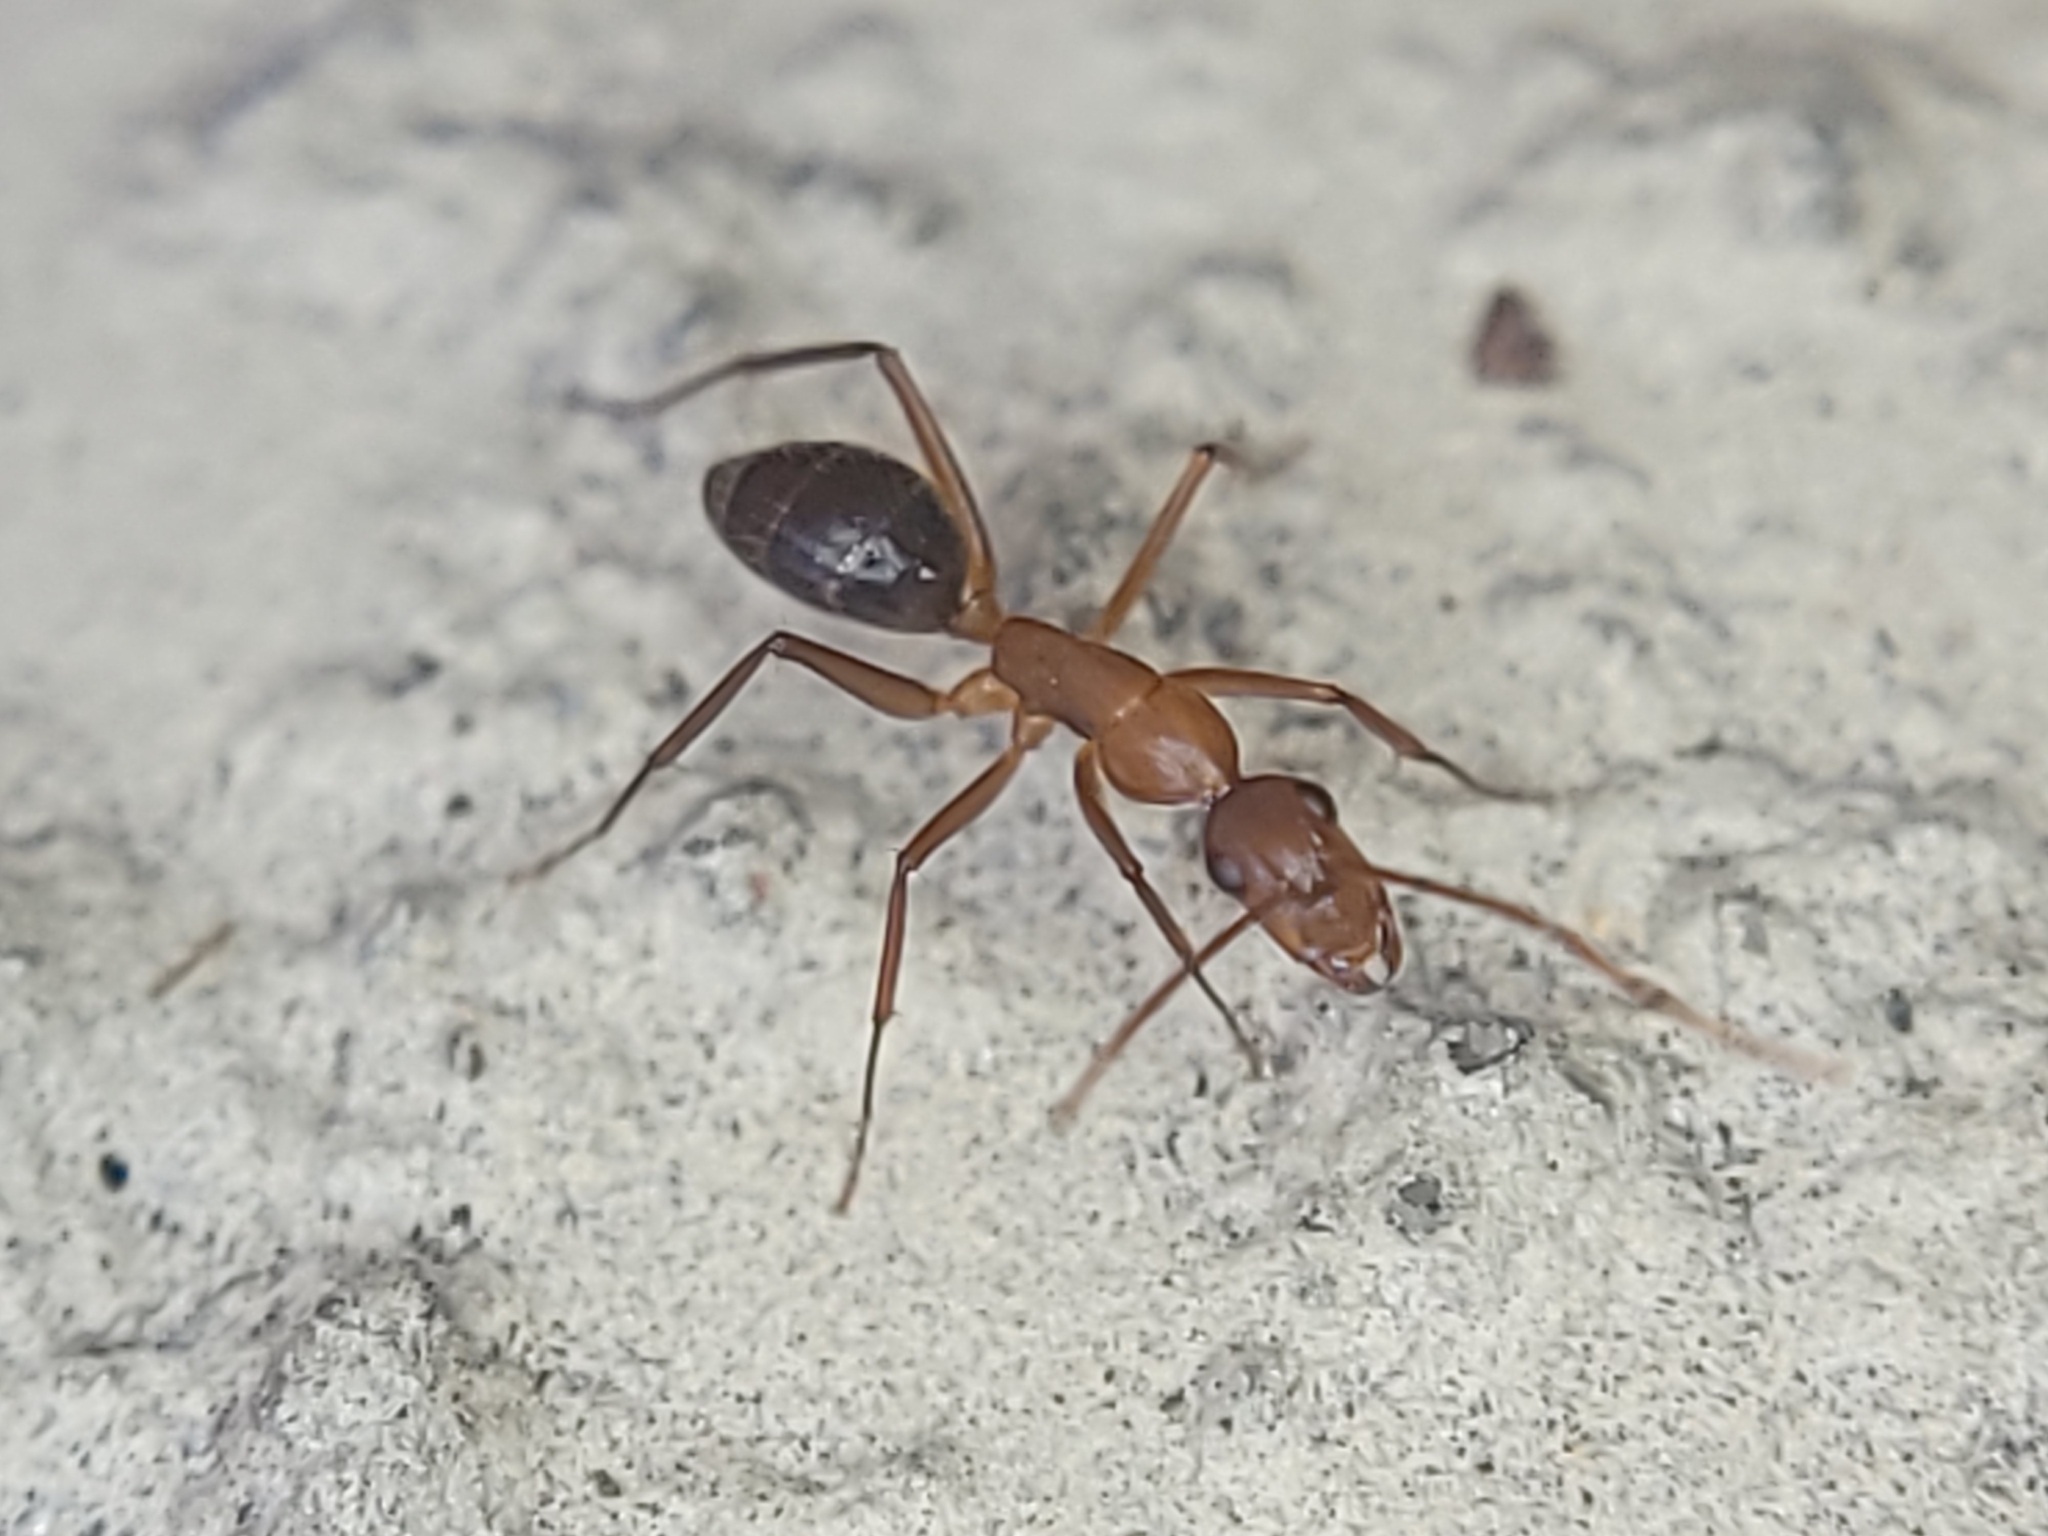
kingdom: Animalia
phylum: Arthropoda
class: Insecta
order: Hymenoptera
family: Formicidae
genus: Camponotus
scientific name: Camponotus inaequalis
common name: Ant
